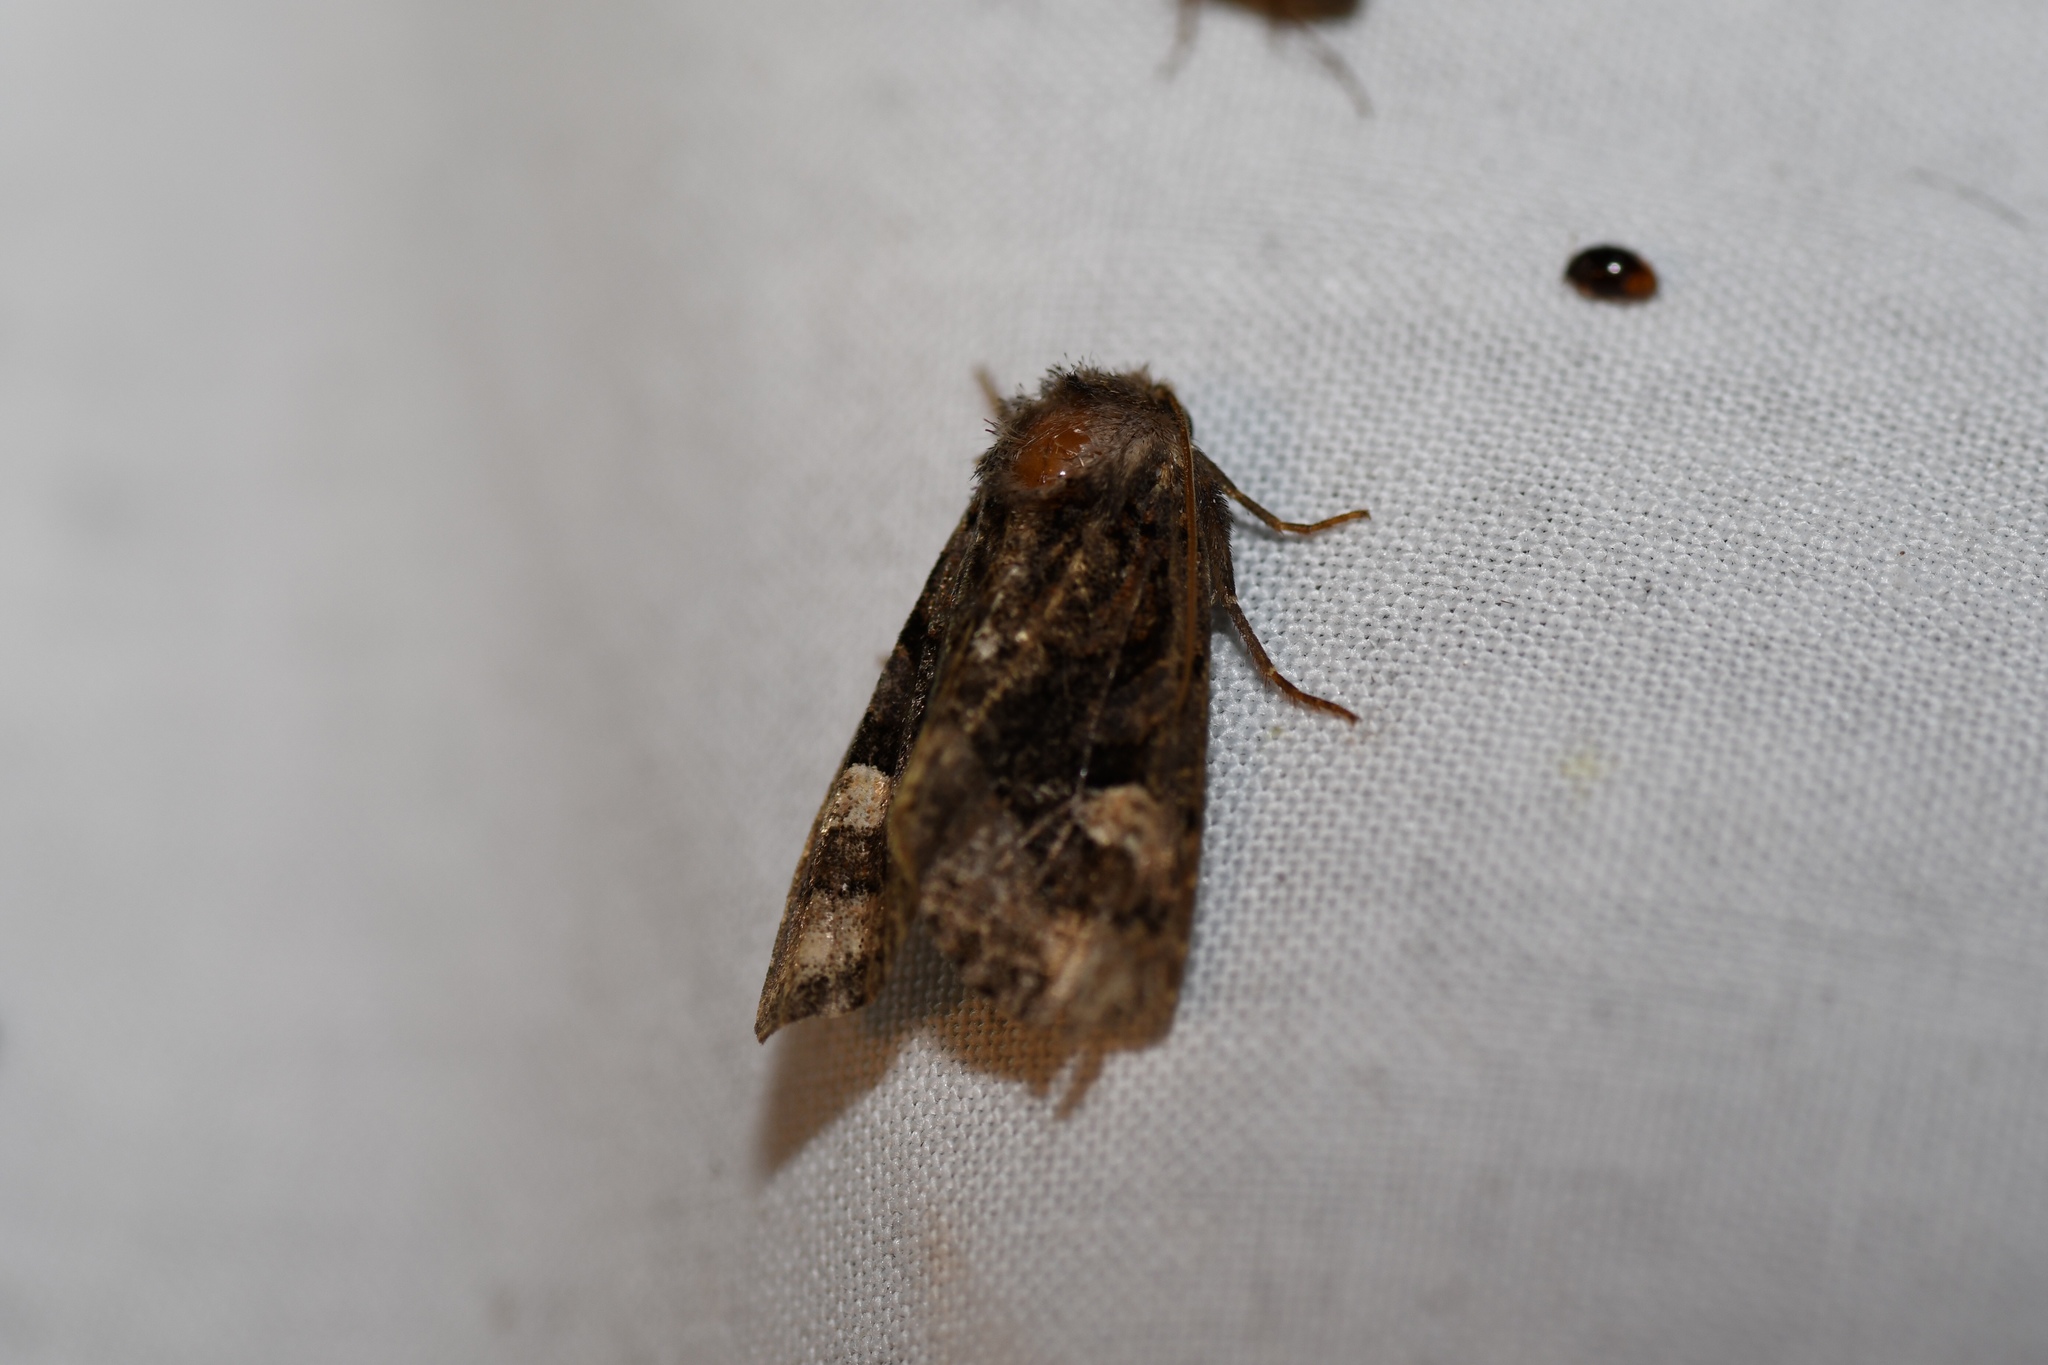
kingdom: Animalia
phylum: Arthropoda
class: Insecta
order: Lepidoptera
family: Noctuidae
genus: Euplexia
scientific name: Euplexia benesimilis
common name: American angle shades
